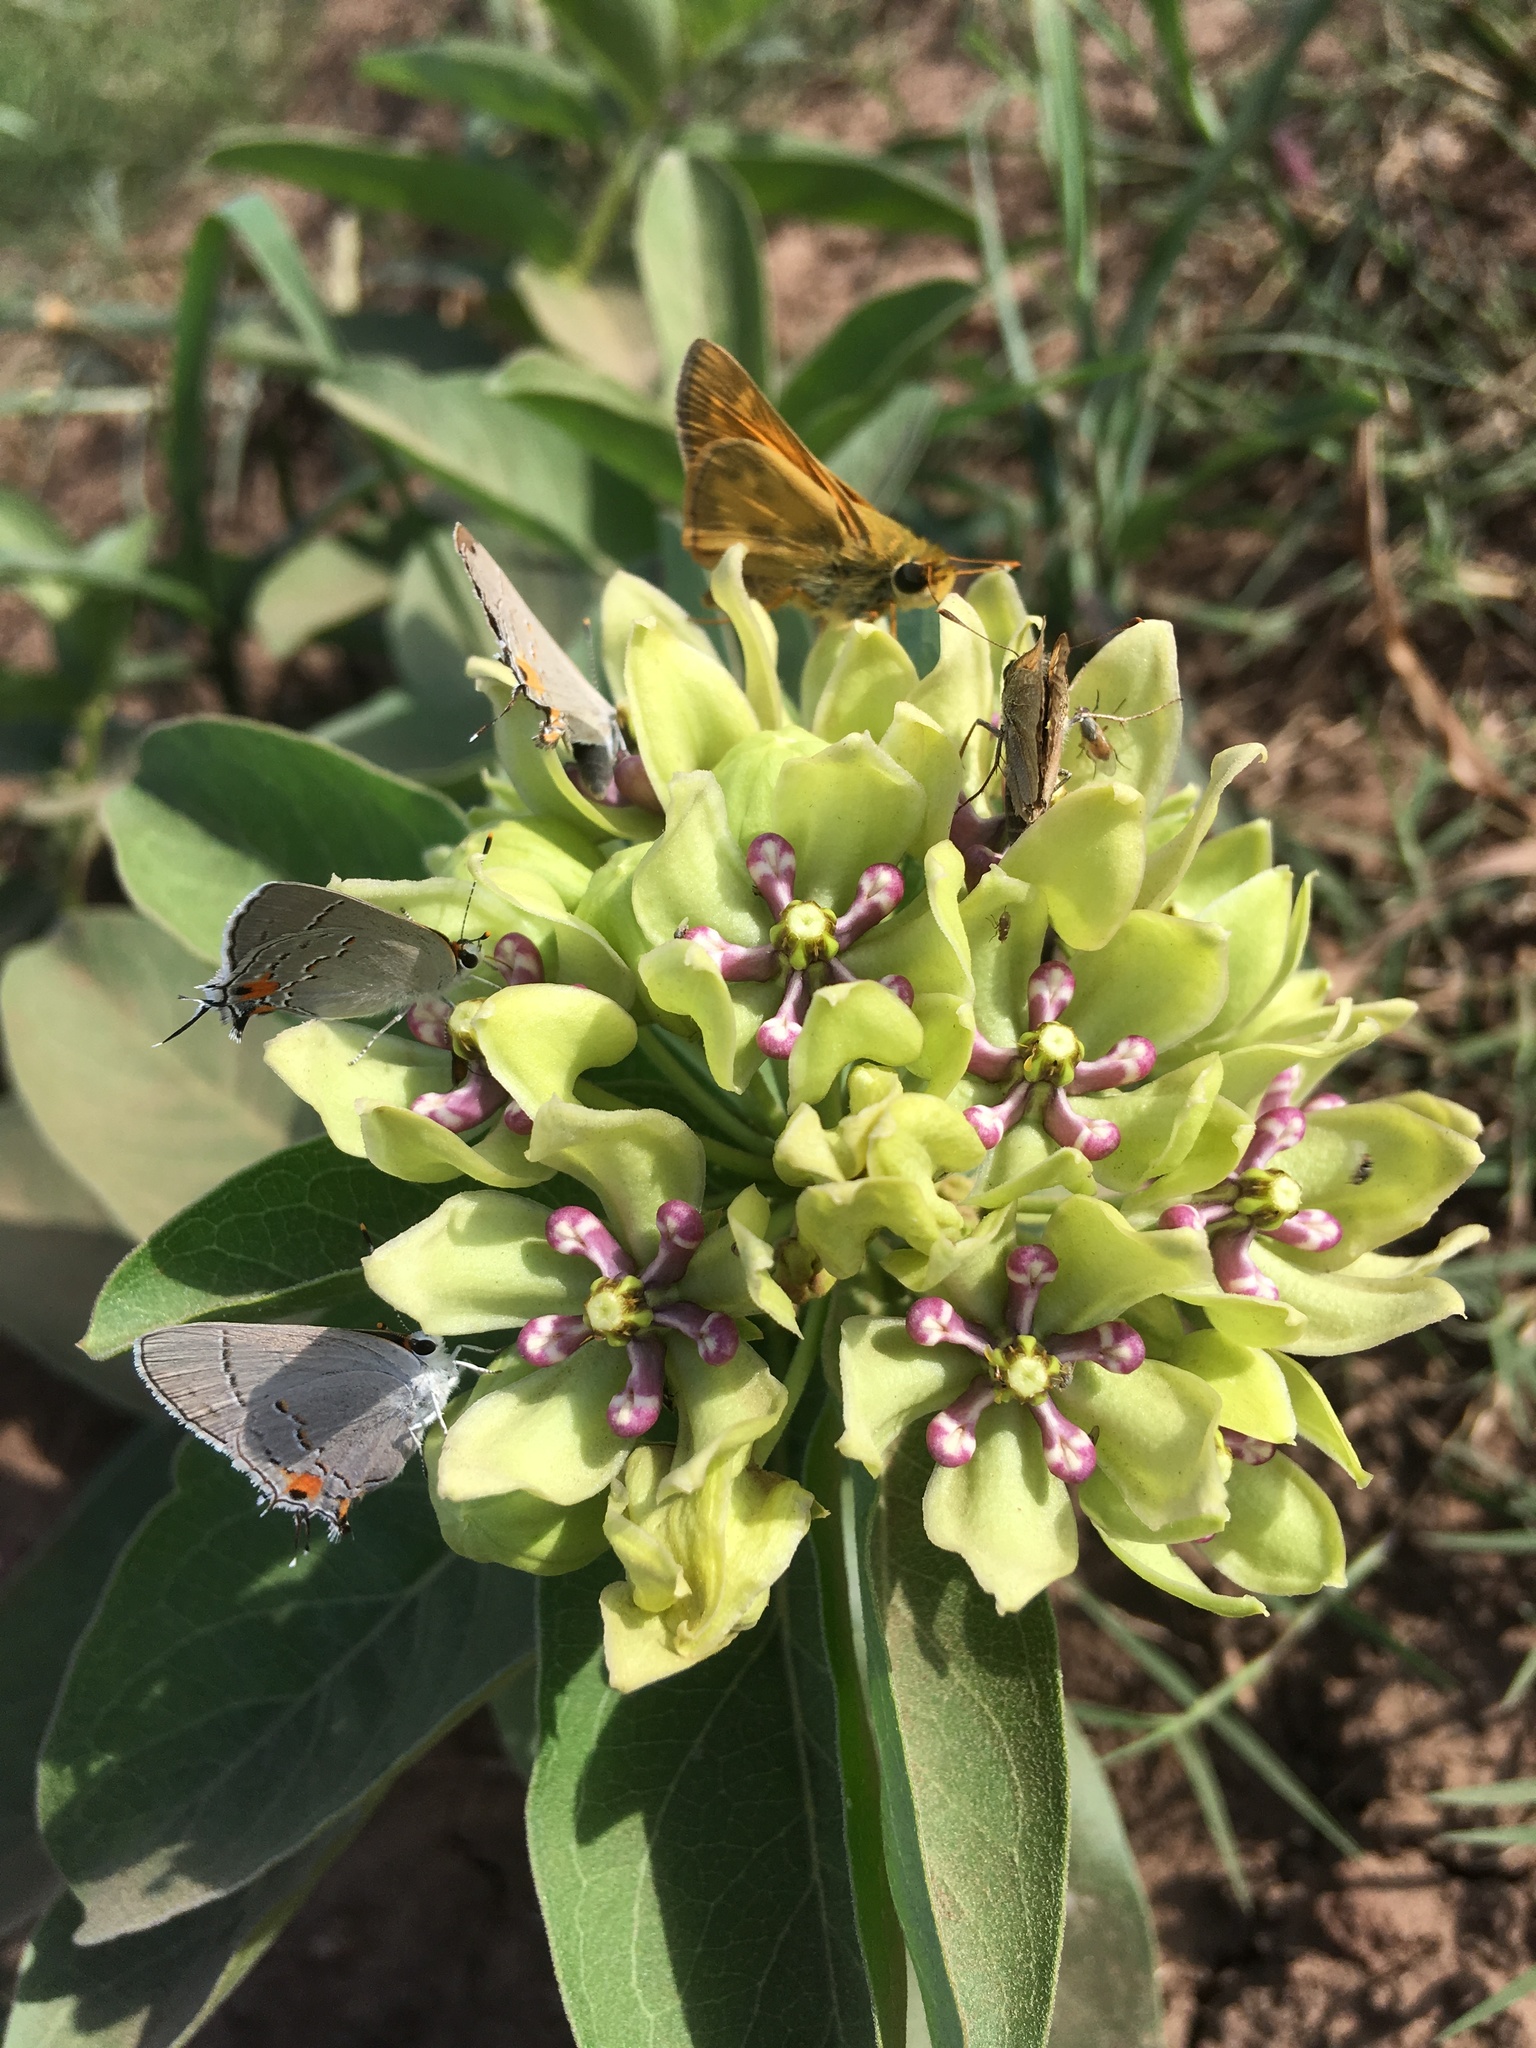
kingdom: Animalia
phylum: Arthropoda
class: Insecta
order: Lepidoptera
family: Hesperiidae
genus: Atalopedes
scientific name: Atalopedes
